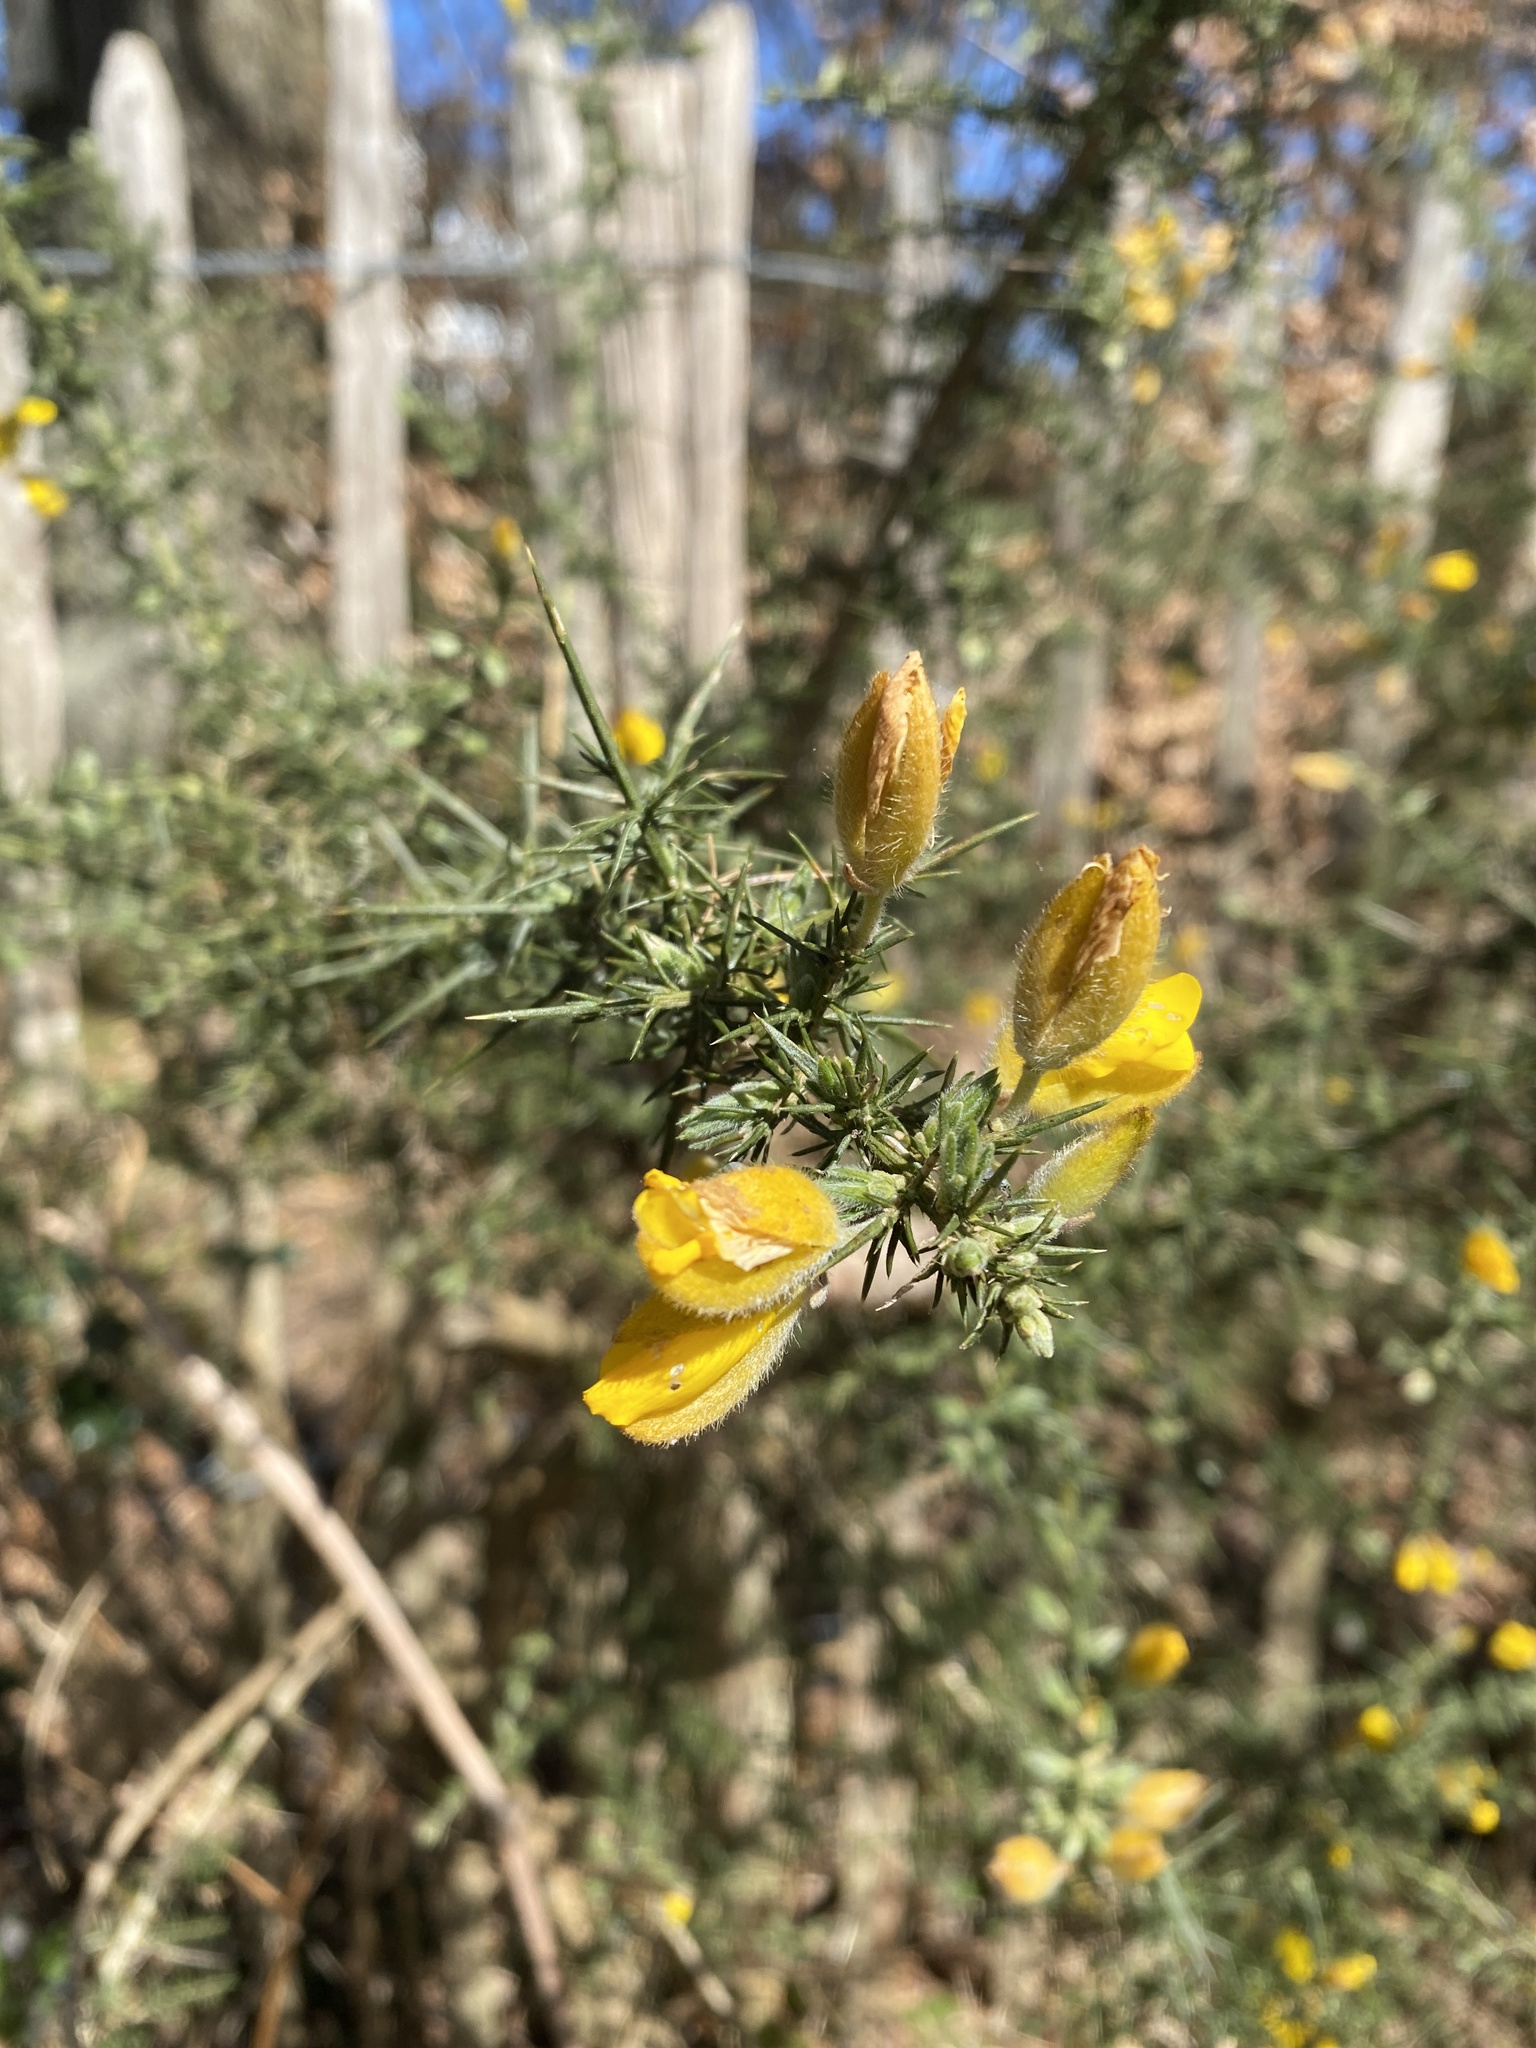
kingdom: Plantae
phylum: Tracheophyta
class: Magnoliopsida
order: Fabales
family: Fabaceae
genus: Ulex
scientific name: Ulex europaeus
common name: Common gorse
